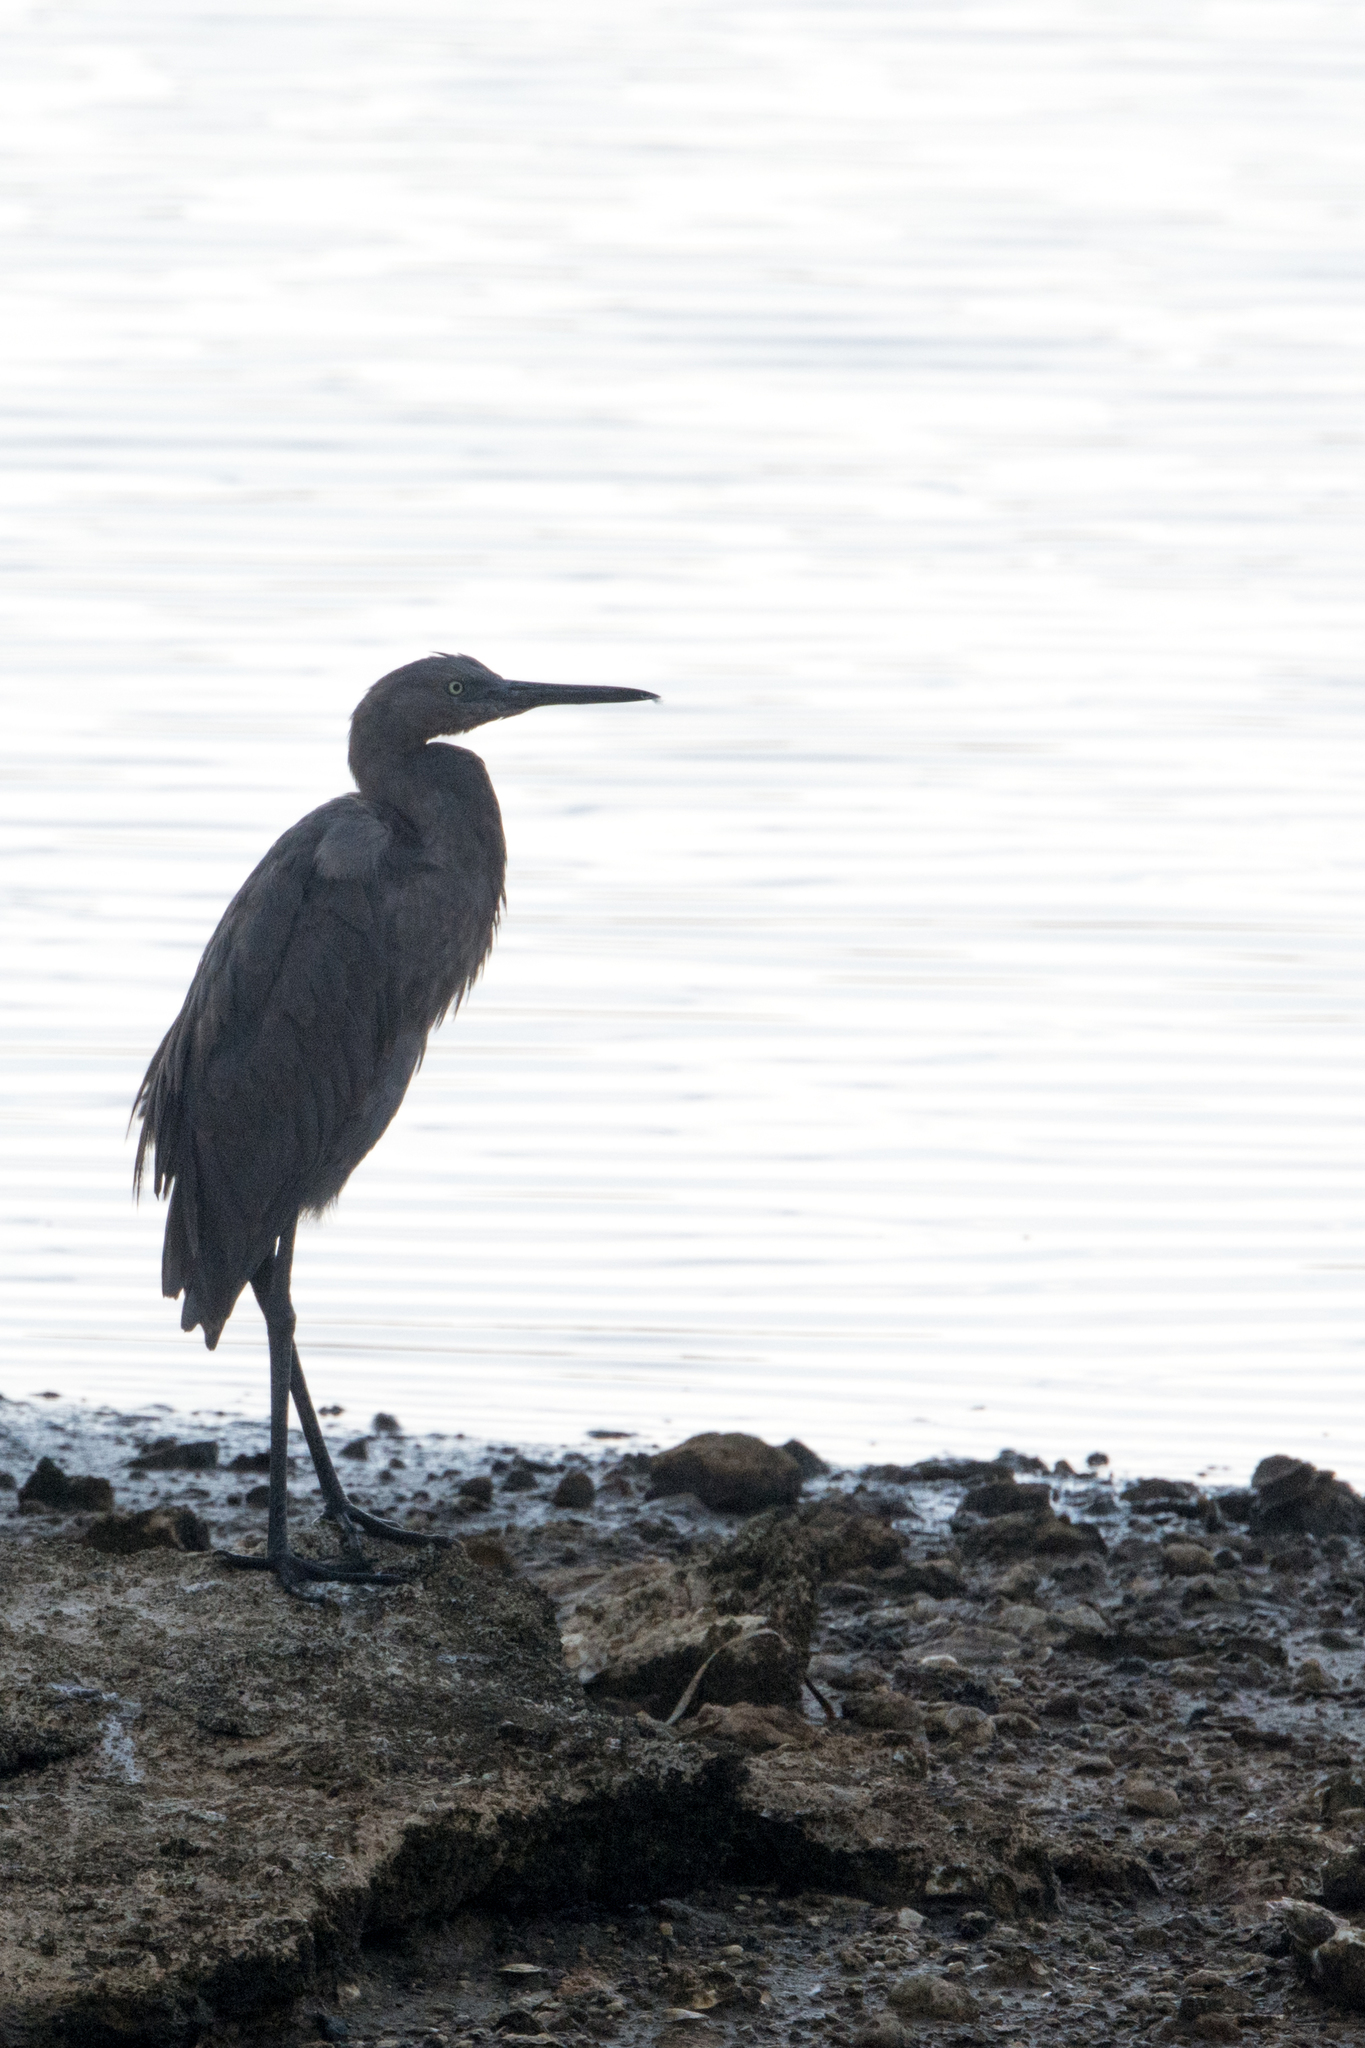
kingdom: Animalia
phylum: Chordata
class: Aves
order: Pelecaniformes
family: Ardeidae
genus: Egretta
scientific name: Egretta rufescens
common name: Reddish egret
